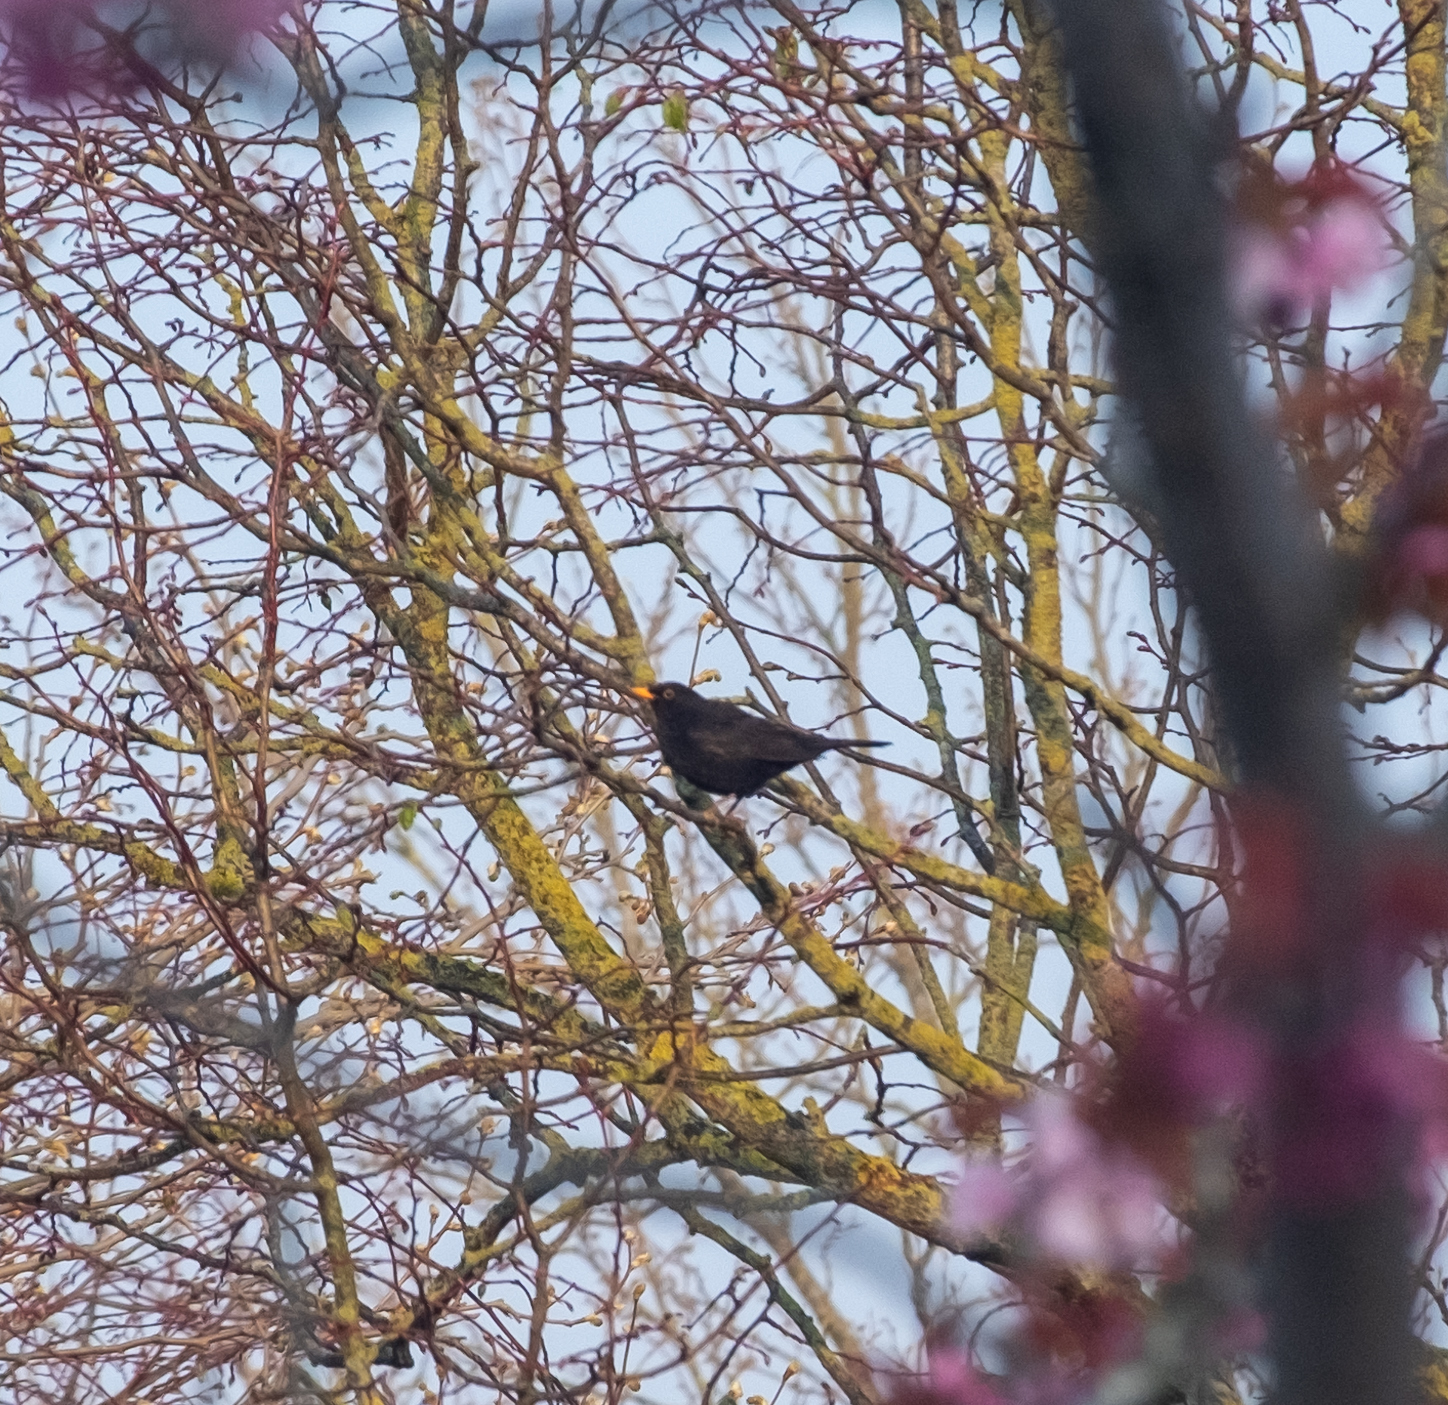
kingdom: Animalia
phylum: Chordata
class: Aves
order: Passeriformes
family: Turdidae
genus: Turdus
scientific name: Turdus merula
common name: Common blackbird
